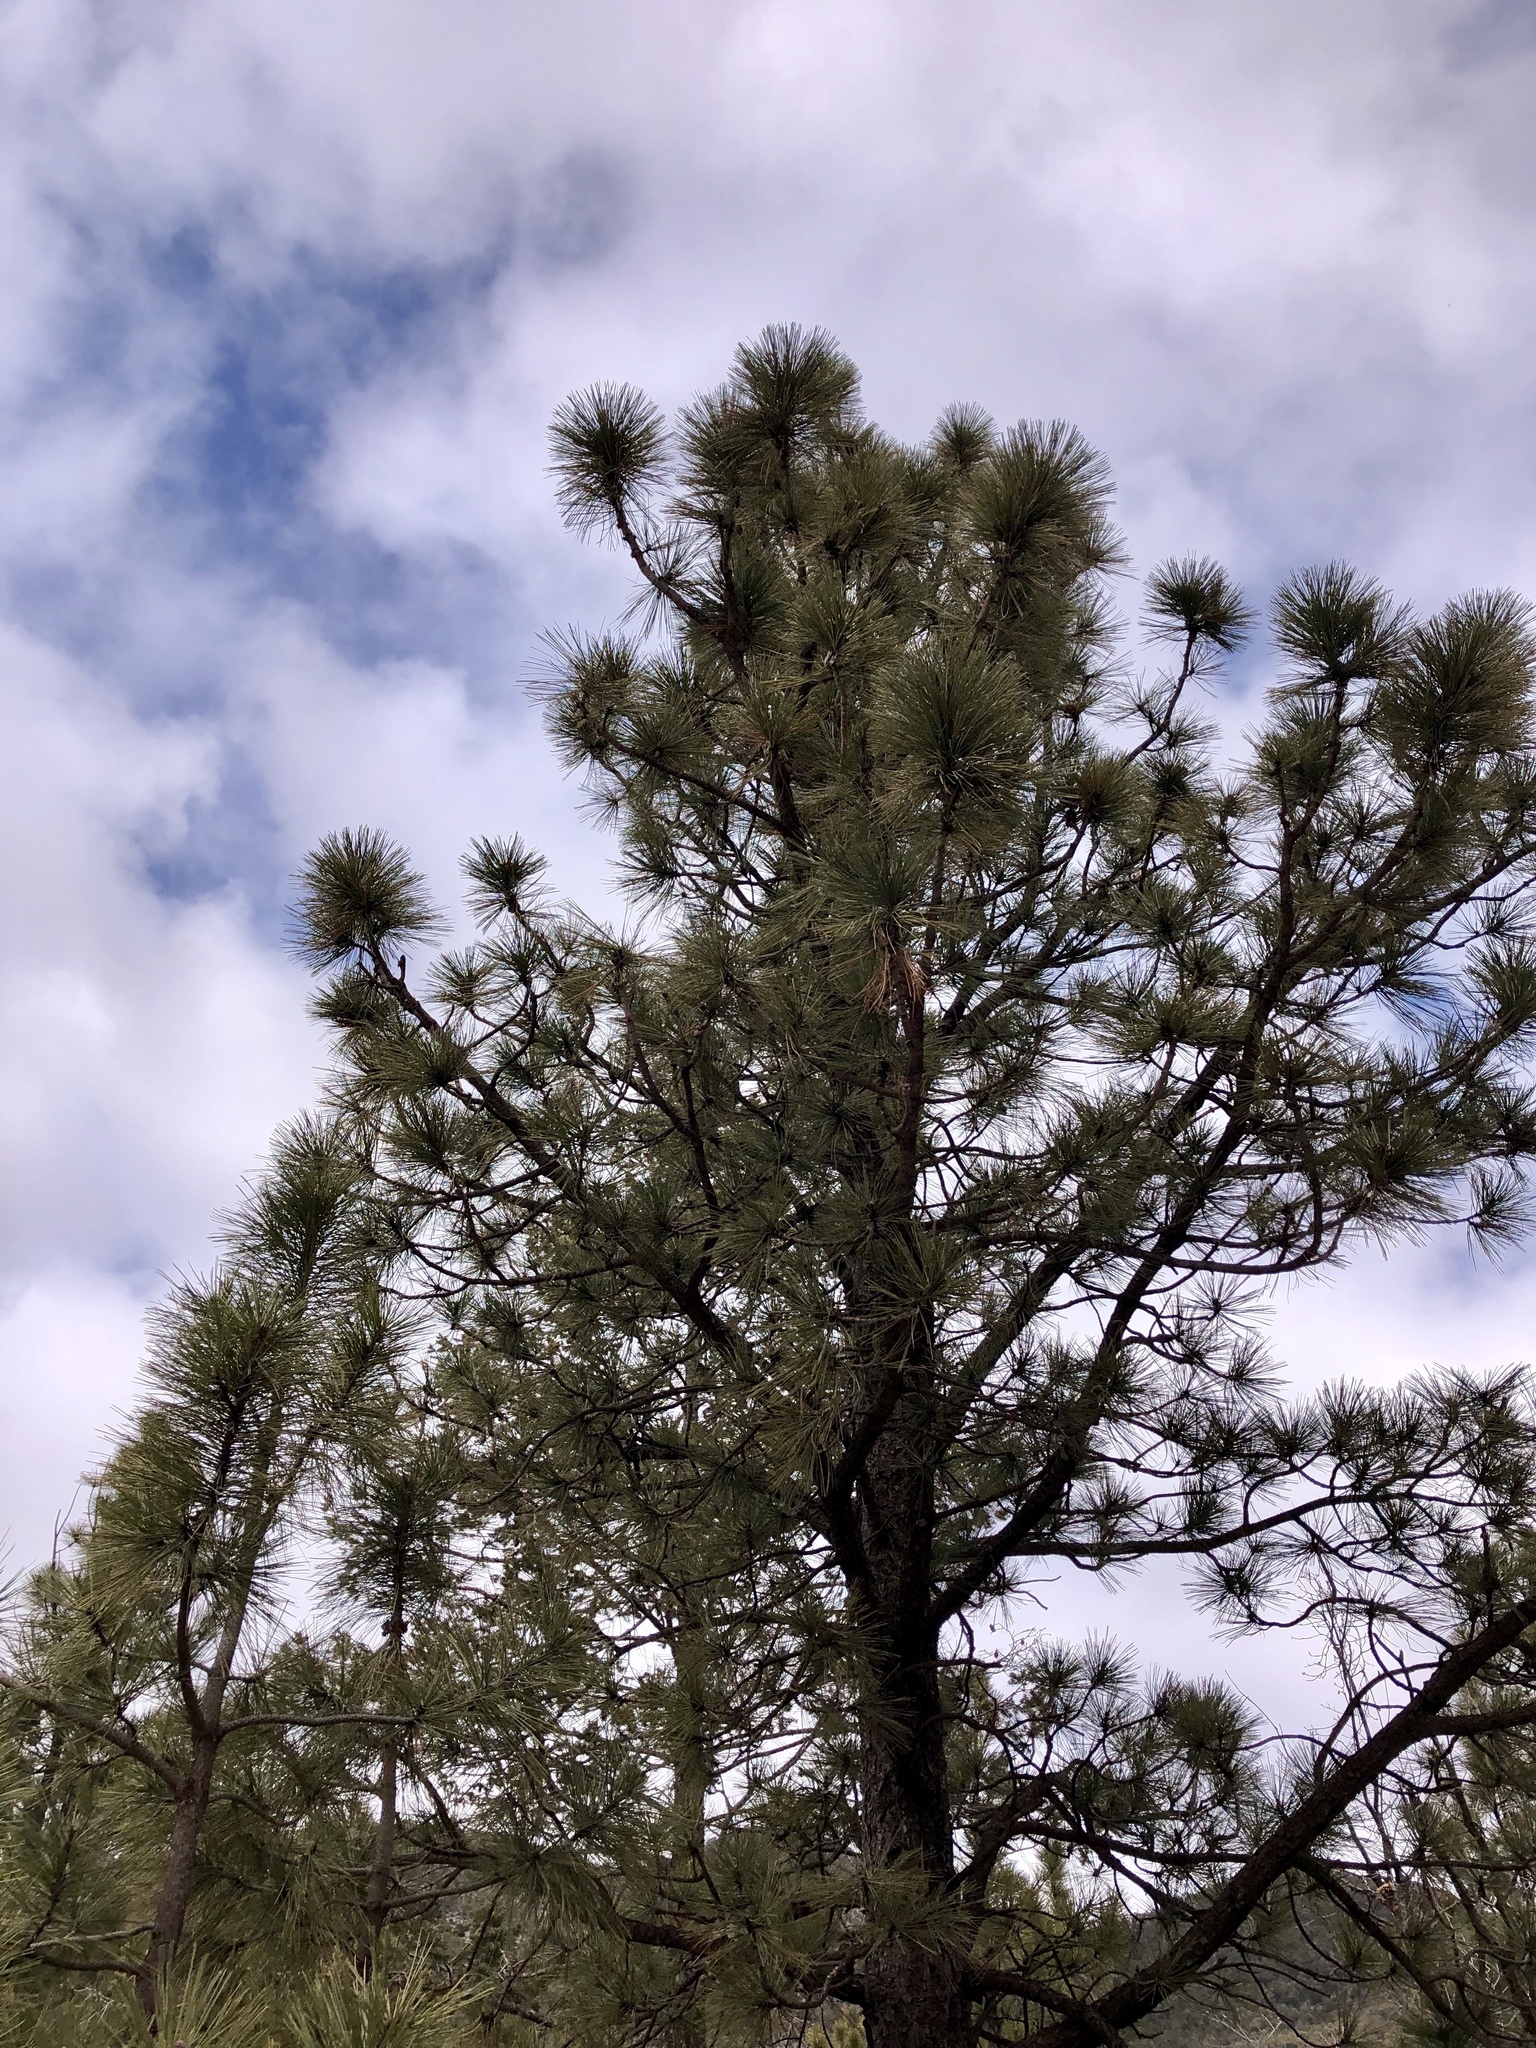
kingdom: Plantae
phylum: Tracheophyta
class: Pinopsida
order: Pinales
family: Pinaceae
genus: Pinus
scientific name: Pinus ponderosa
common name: Western yellow-pine
